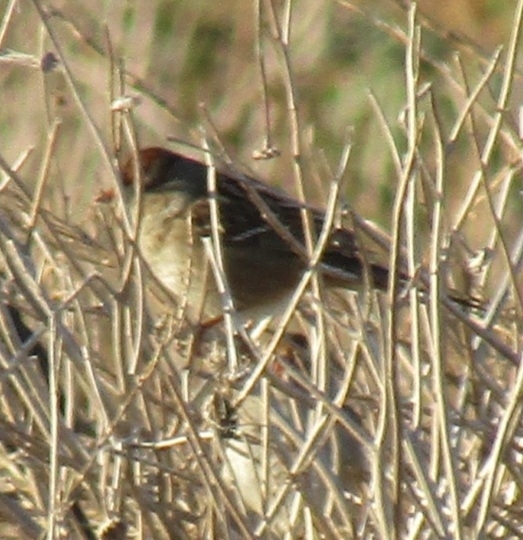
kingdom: Animalia
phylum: Chordata
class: Aves
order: Passeriformes
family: Passerellidae
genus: Zonotrichia
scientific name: Zonotrichia leucophrys
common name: White-crowned sparrow
